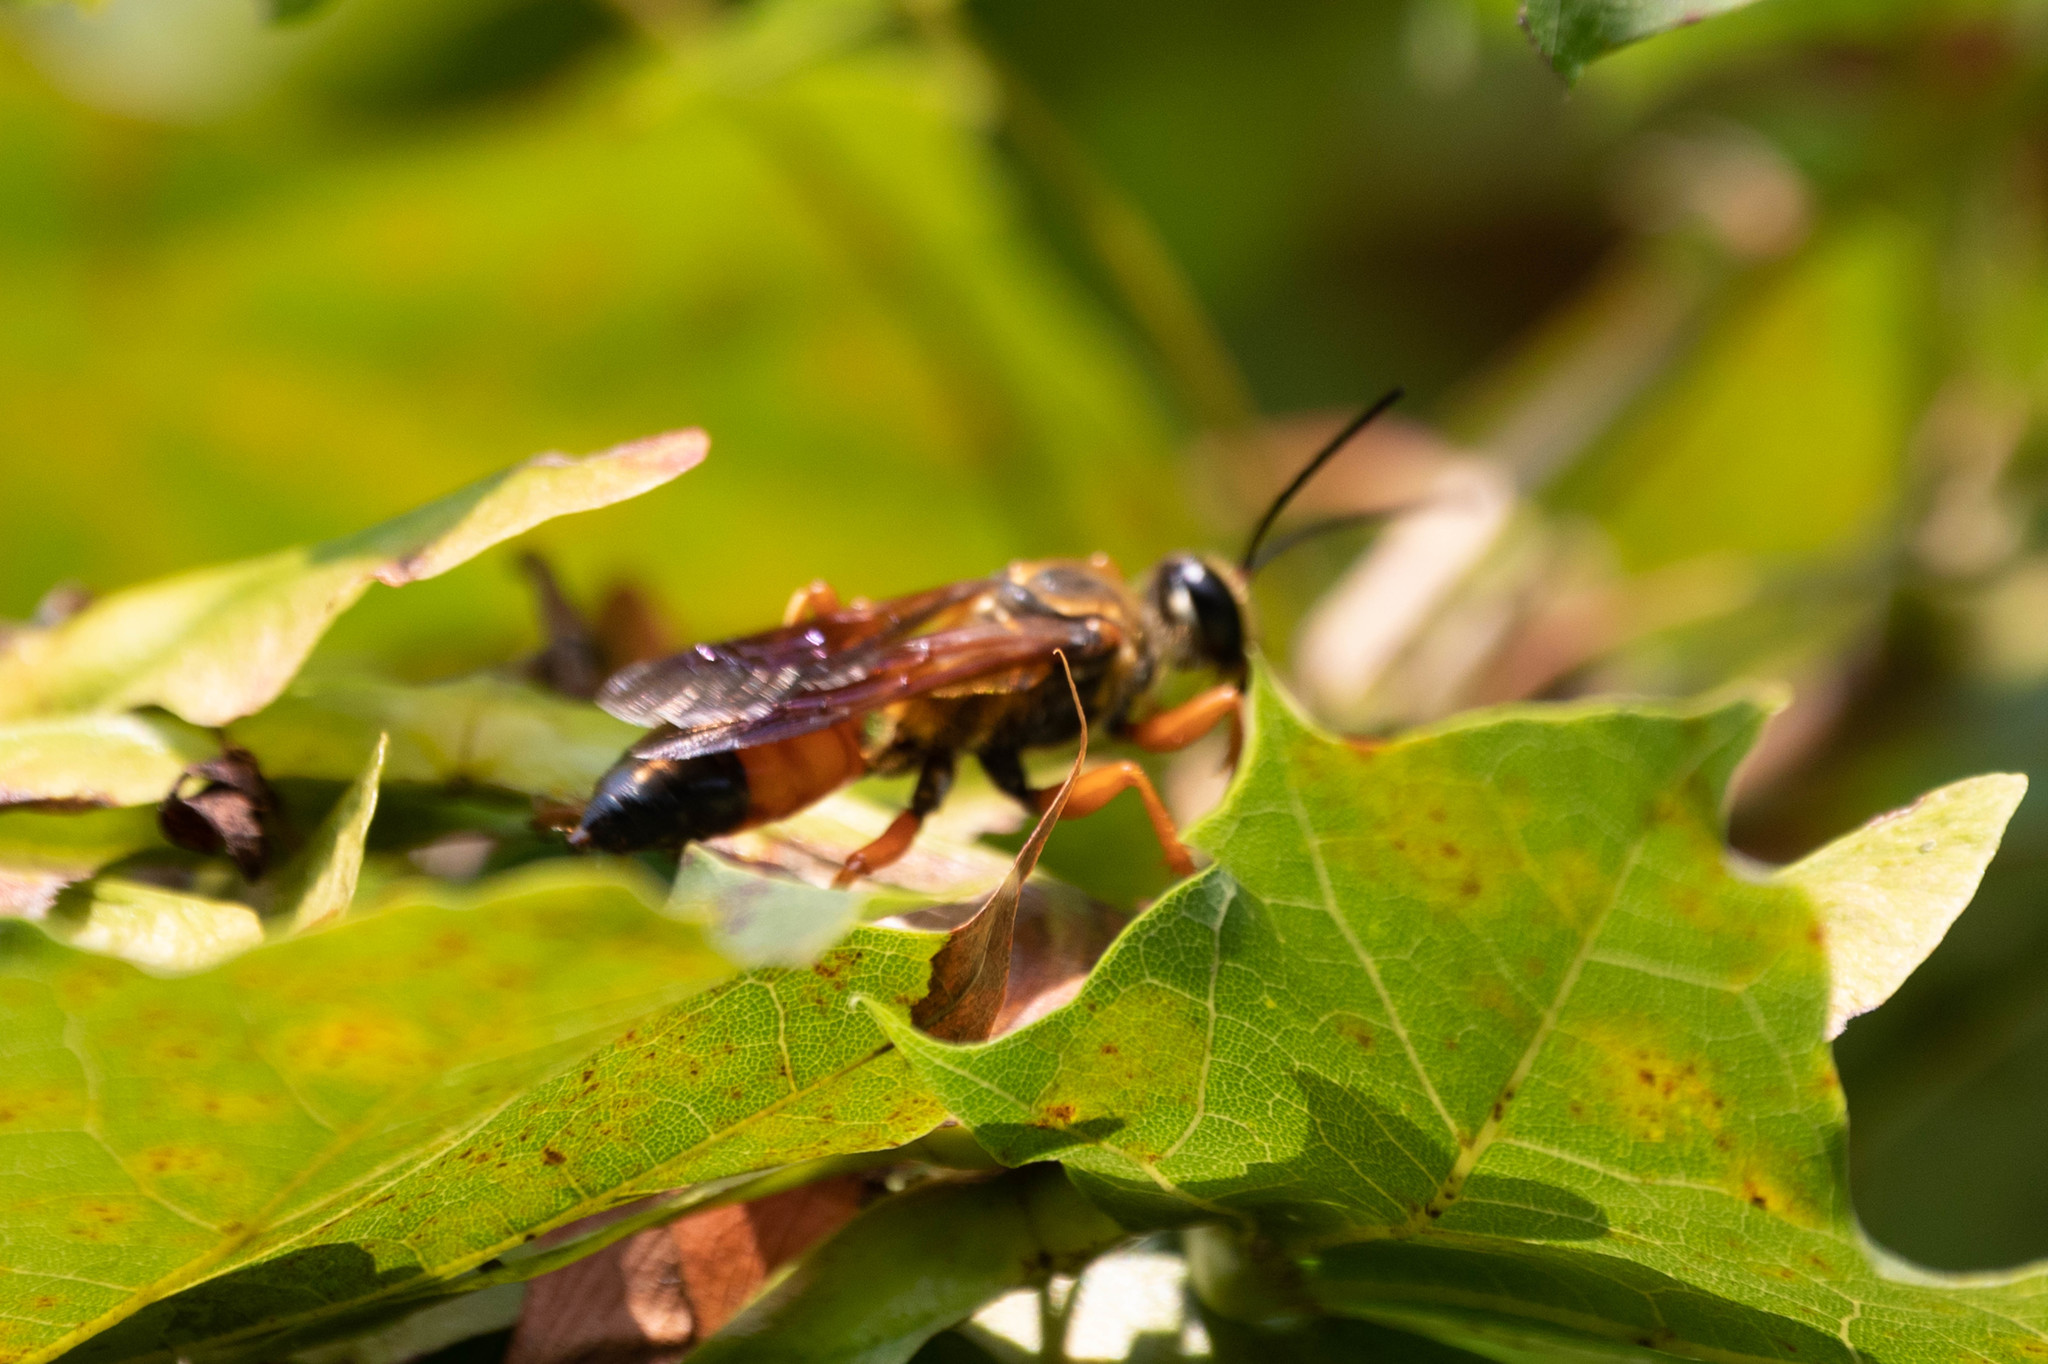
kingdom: Animalia
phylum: Arthropoda
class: Insecta
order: Hymenoptera
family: Sphecidae
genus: Sphex
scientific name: Sphex ichneumoneus
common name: Great golden digger wasp
